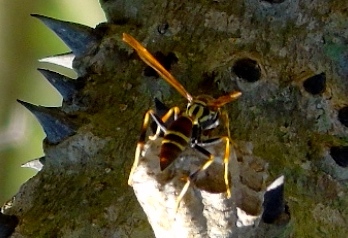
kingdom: Animalia
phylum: Arthropoda
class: Insecta
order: Hymenoptera
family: Eumenidae
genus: Polistes
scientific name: Polistes instabilis
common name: Unstable paper wasp
